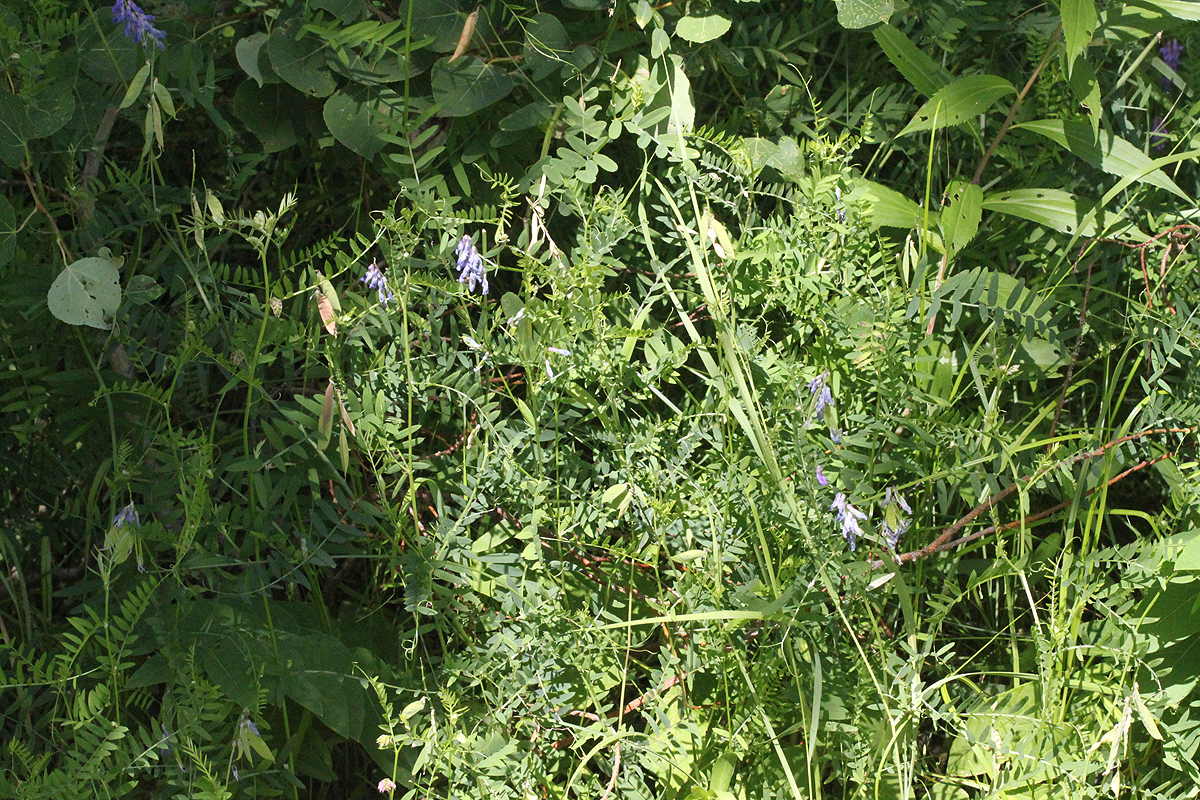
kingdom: Plantae
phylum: Tracheophyta
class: Magnoliopsida
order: Fabales
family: Fabaceae
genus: Vicia
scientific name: Vicia cracca
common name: Bird vetch
